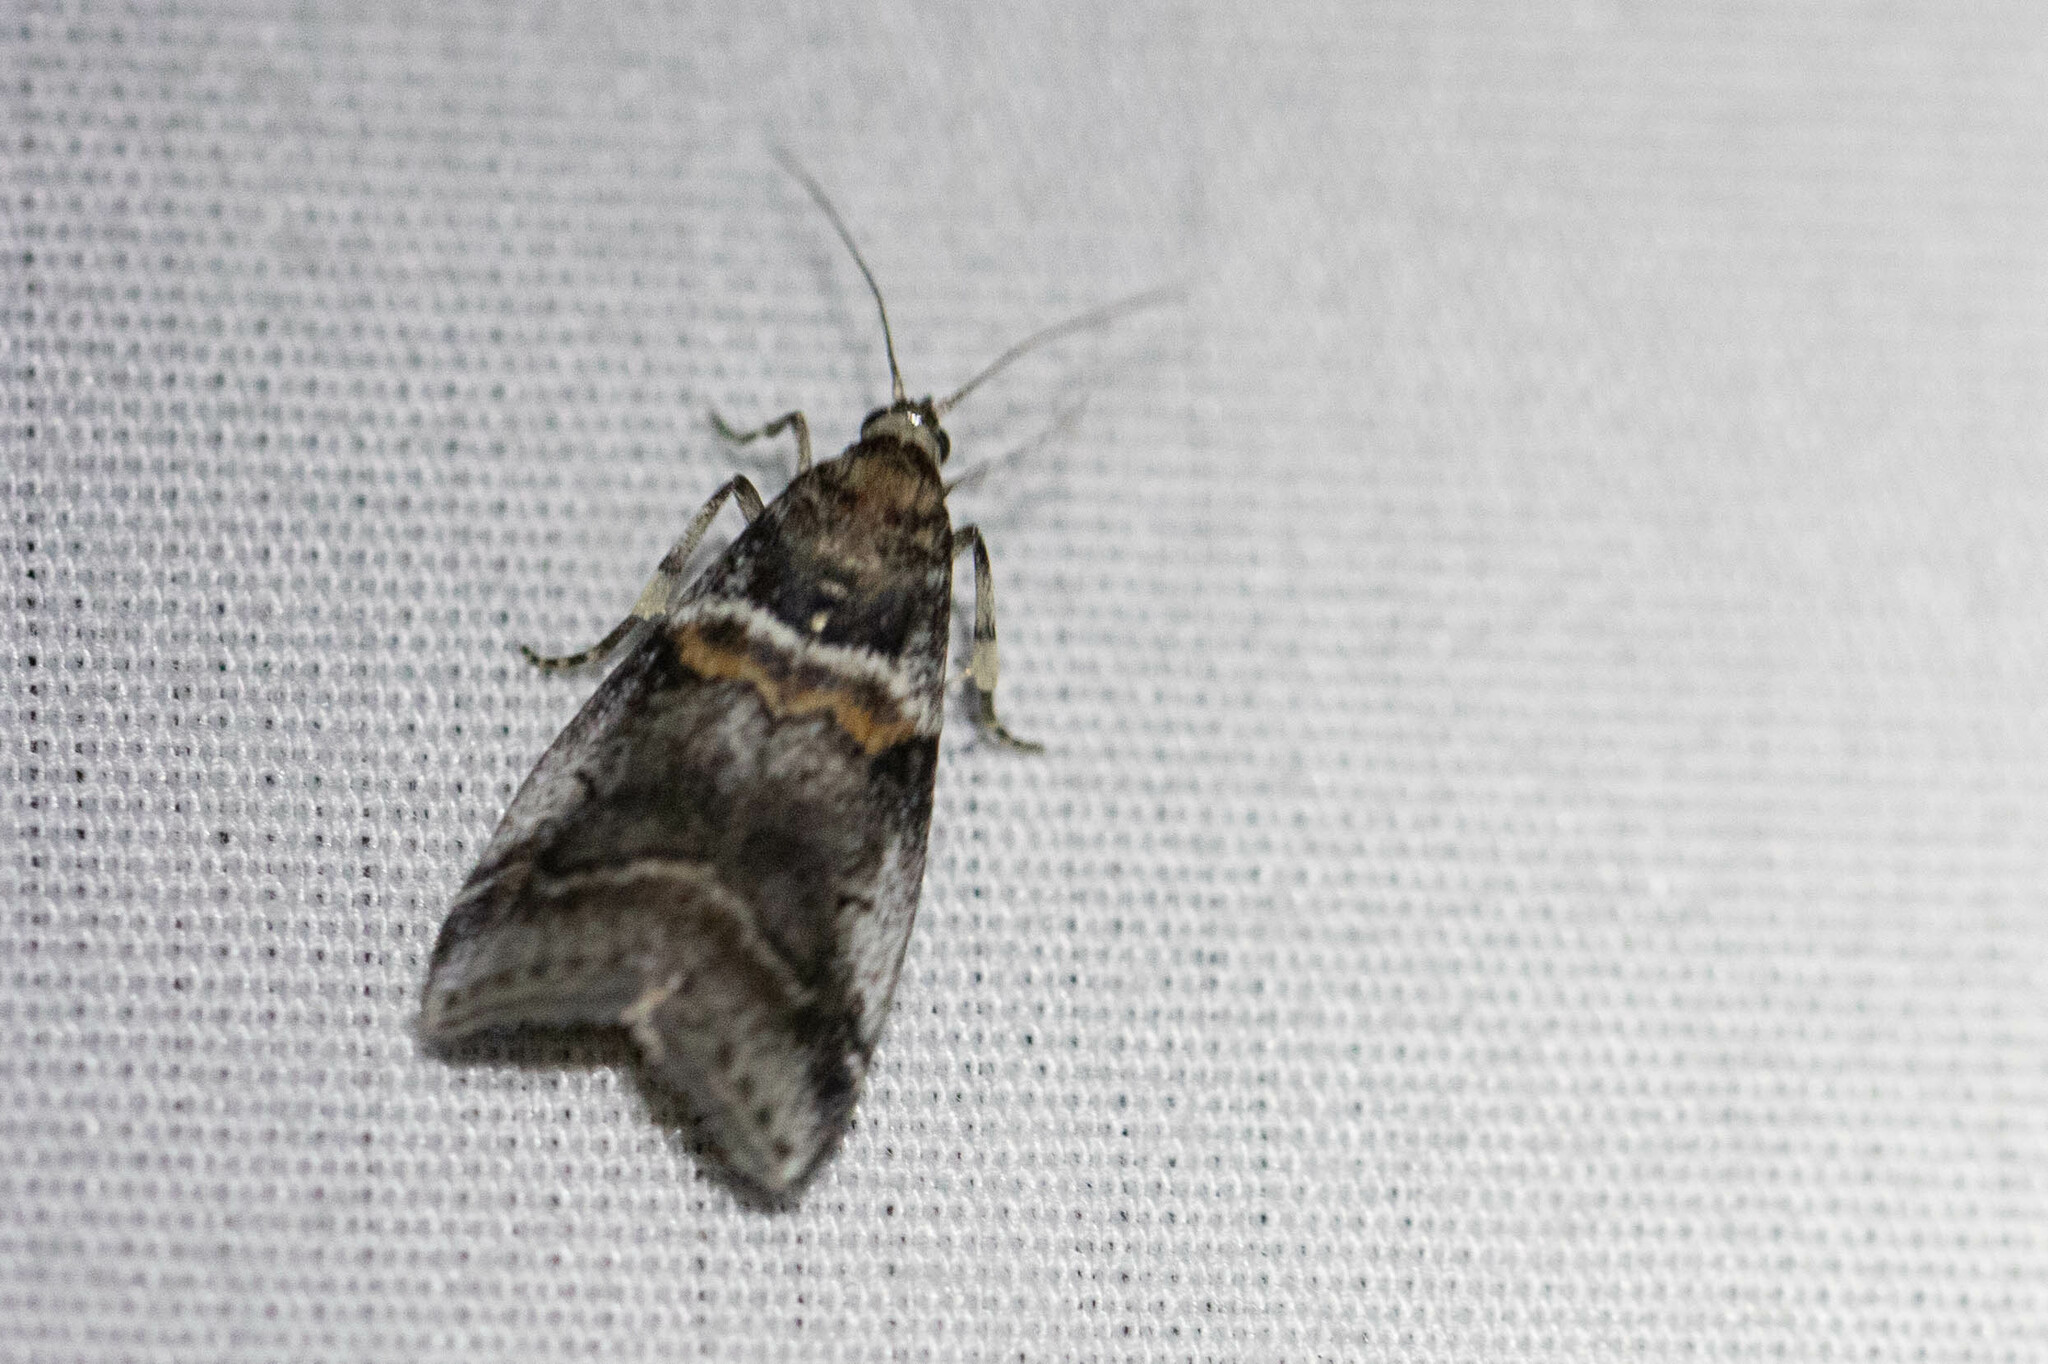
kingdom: Animalia
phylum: Arthropoda
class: Insecta
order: Lepidoptera
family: Pyralidae
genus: Acrobasis
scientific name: Acrobasis tricolorella
